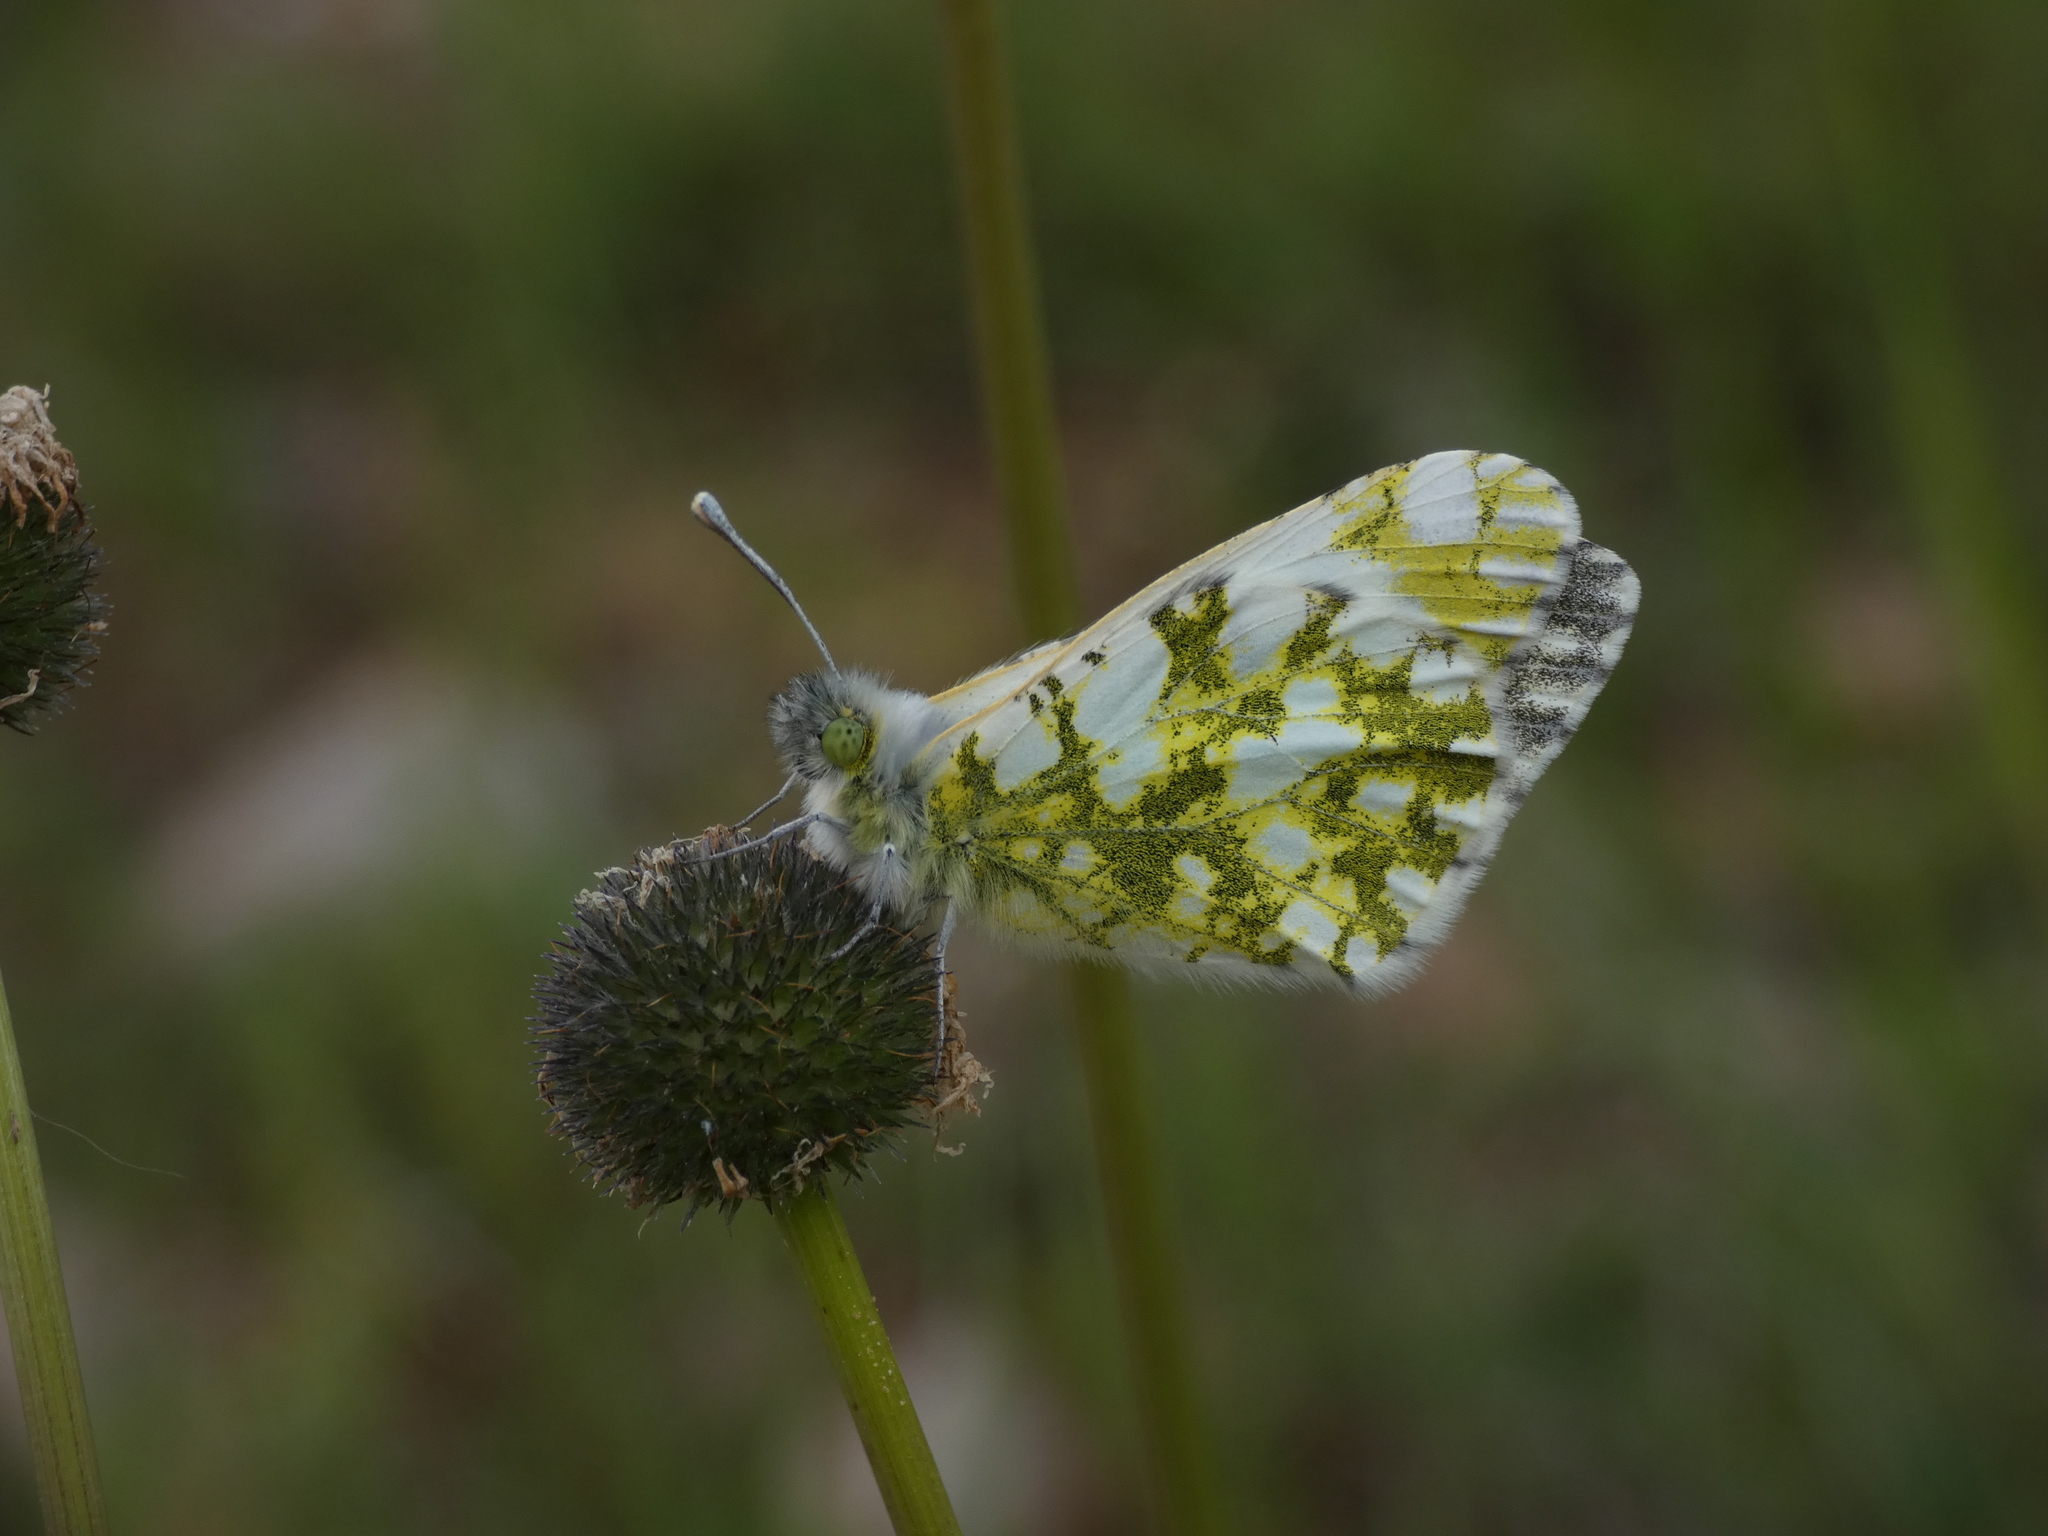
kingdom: Animalia
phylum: Arthropoda
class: Insecta
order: Lepidoptera
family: Pieridae
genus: Anthocharis
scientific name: Anthocharis cardamines
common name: Orange-tip
